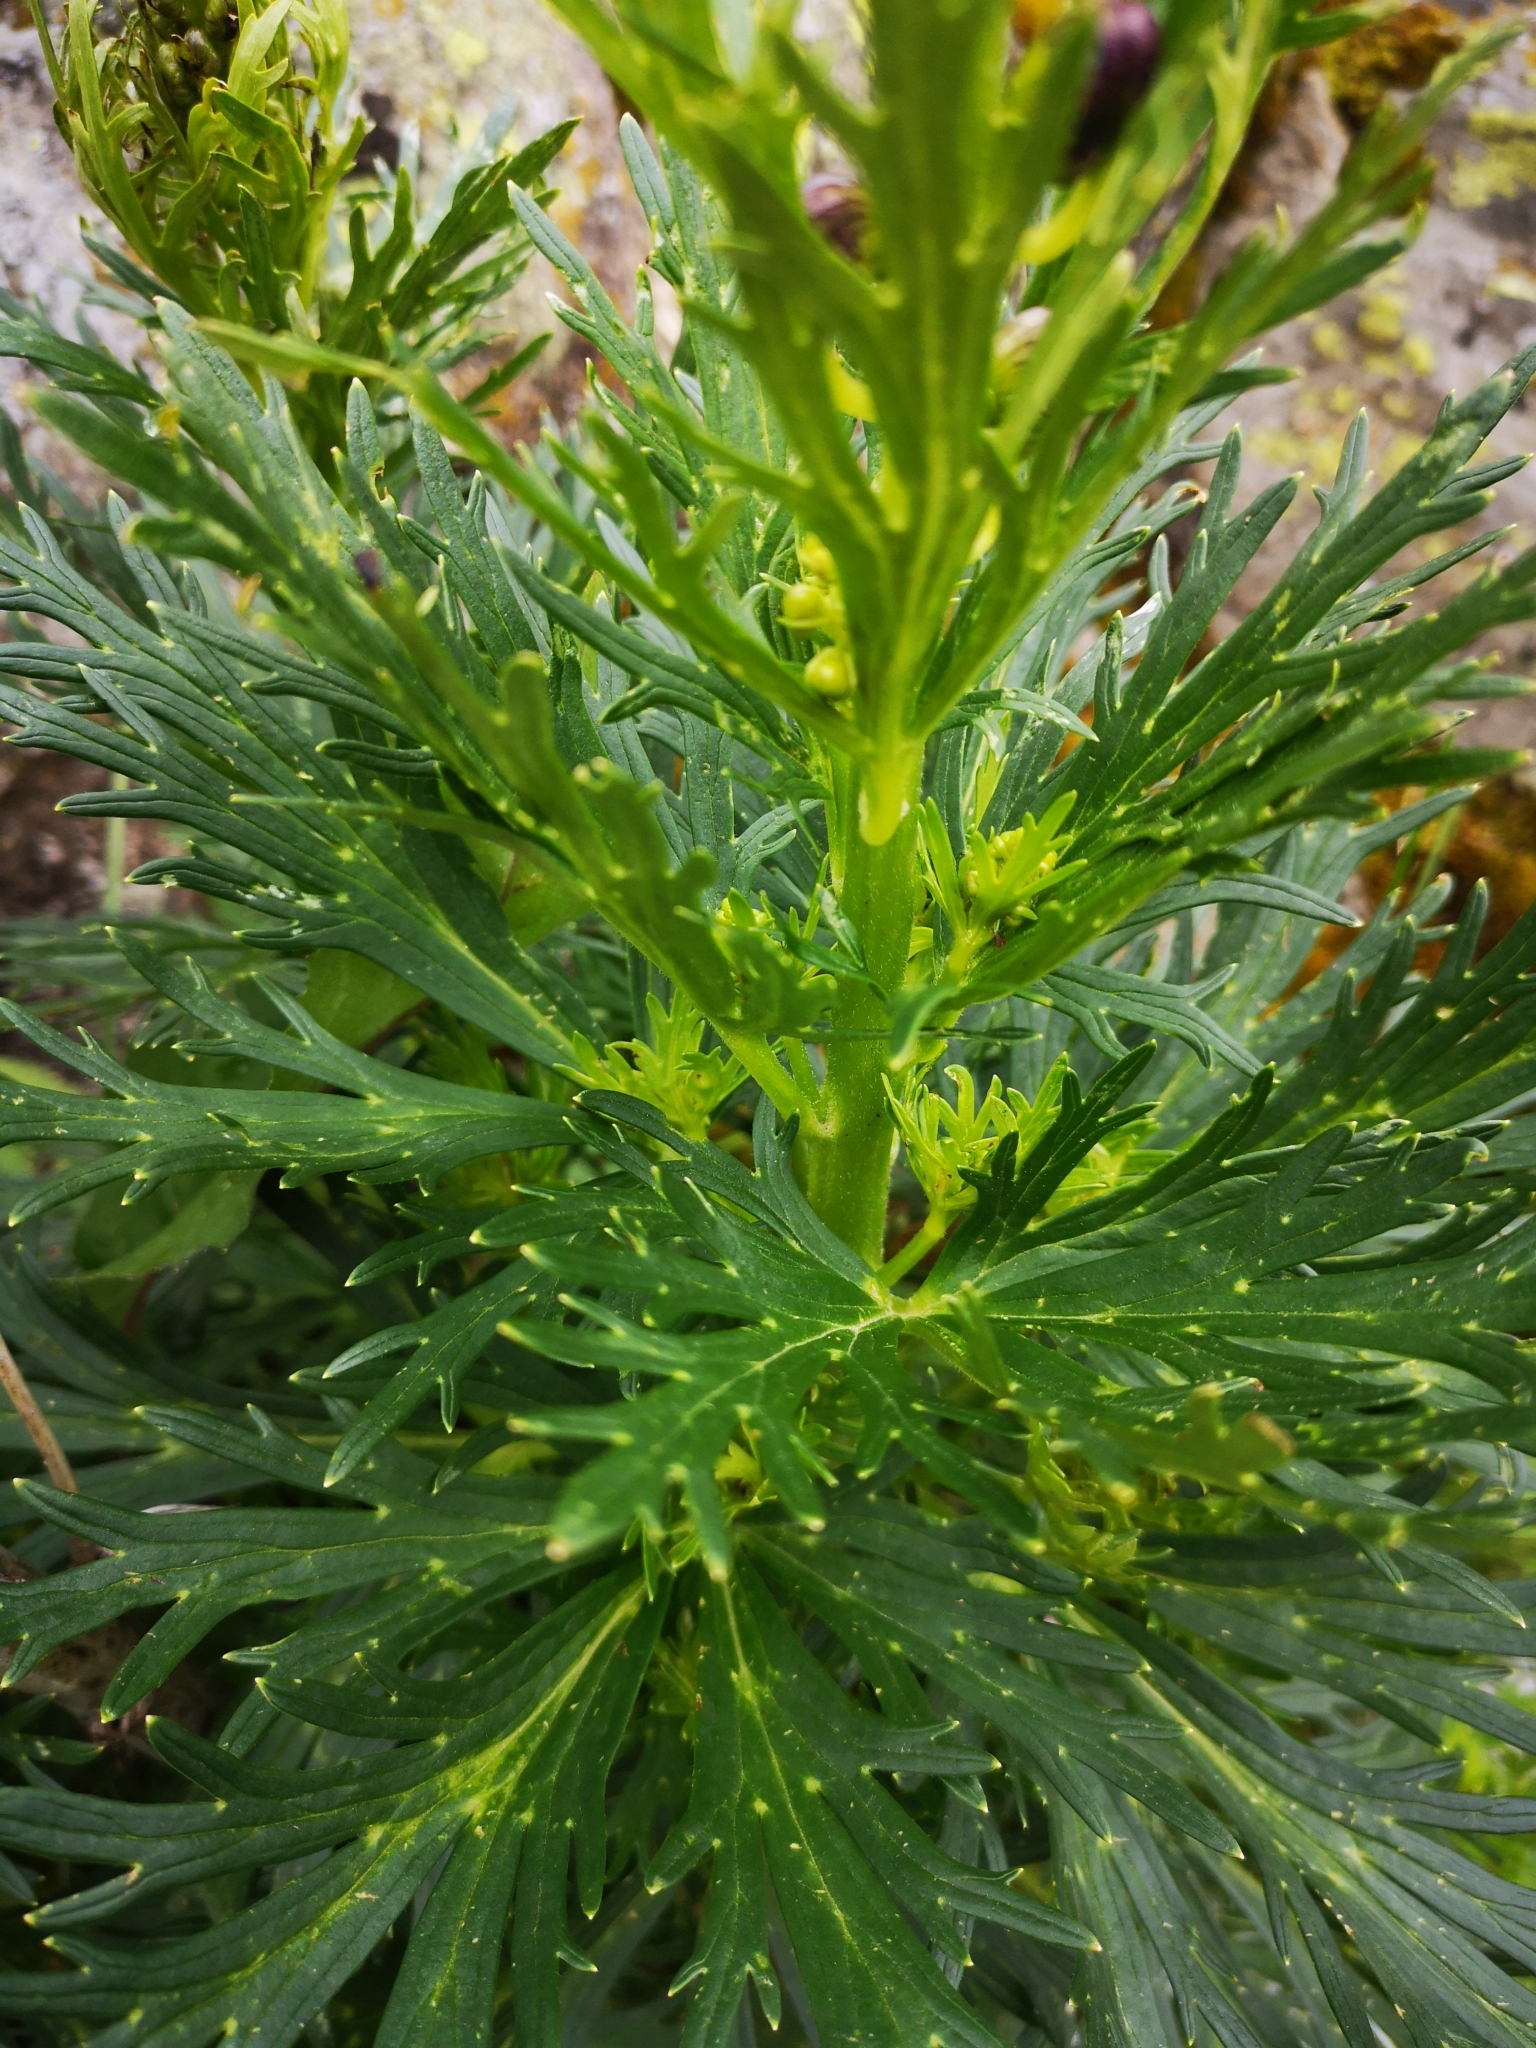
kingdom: Plantae
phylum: Tracheophyta
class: Magnoliopsida
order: Ranunculales
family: Ranunculaceae
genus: Aconitum
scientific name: Aconitum tauricum
